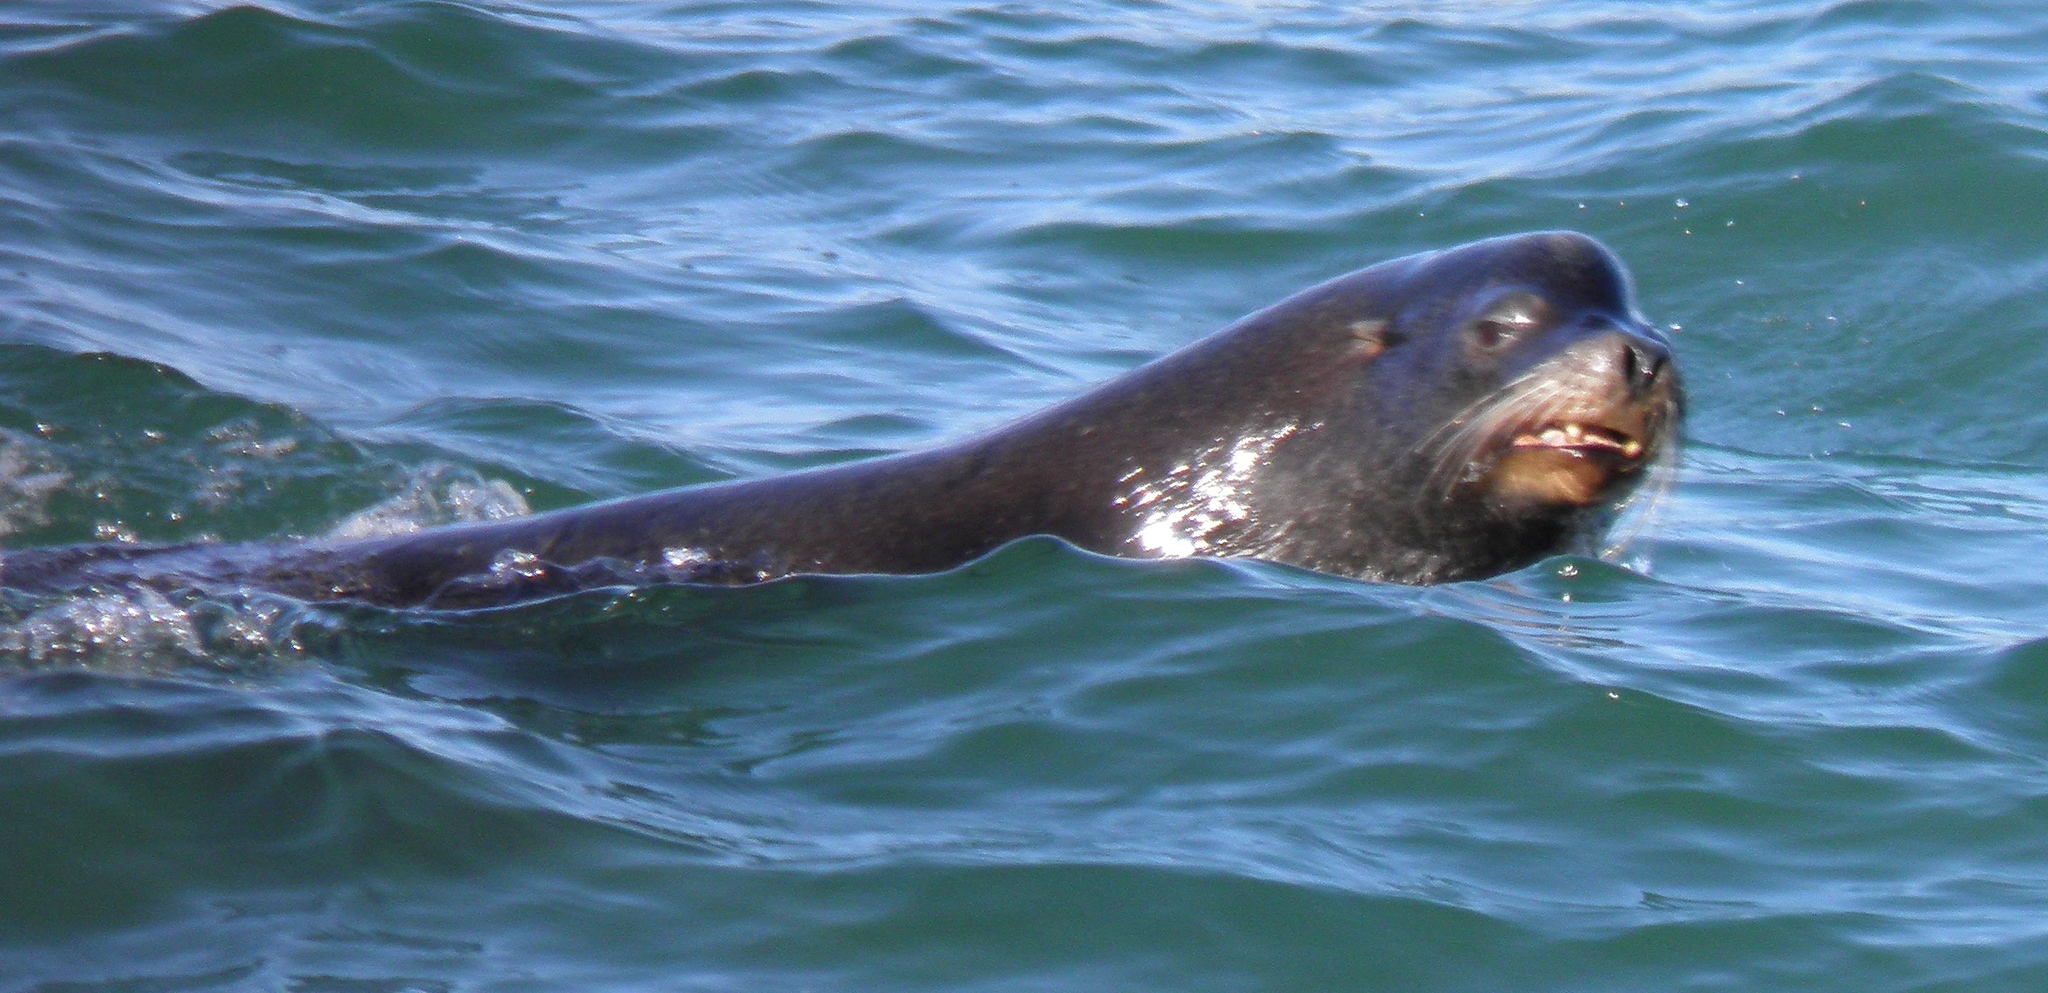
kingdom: Animalia
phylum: Chordata
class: Mammalia
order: Carnivora
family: Otariidae
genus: Zalophus
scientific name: Zalophus californianus
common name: California sea lion
